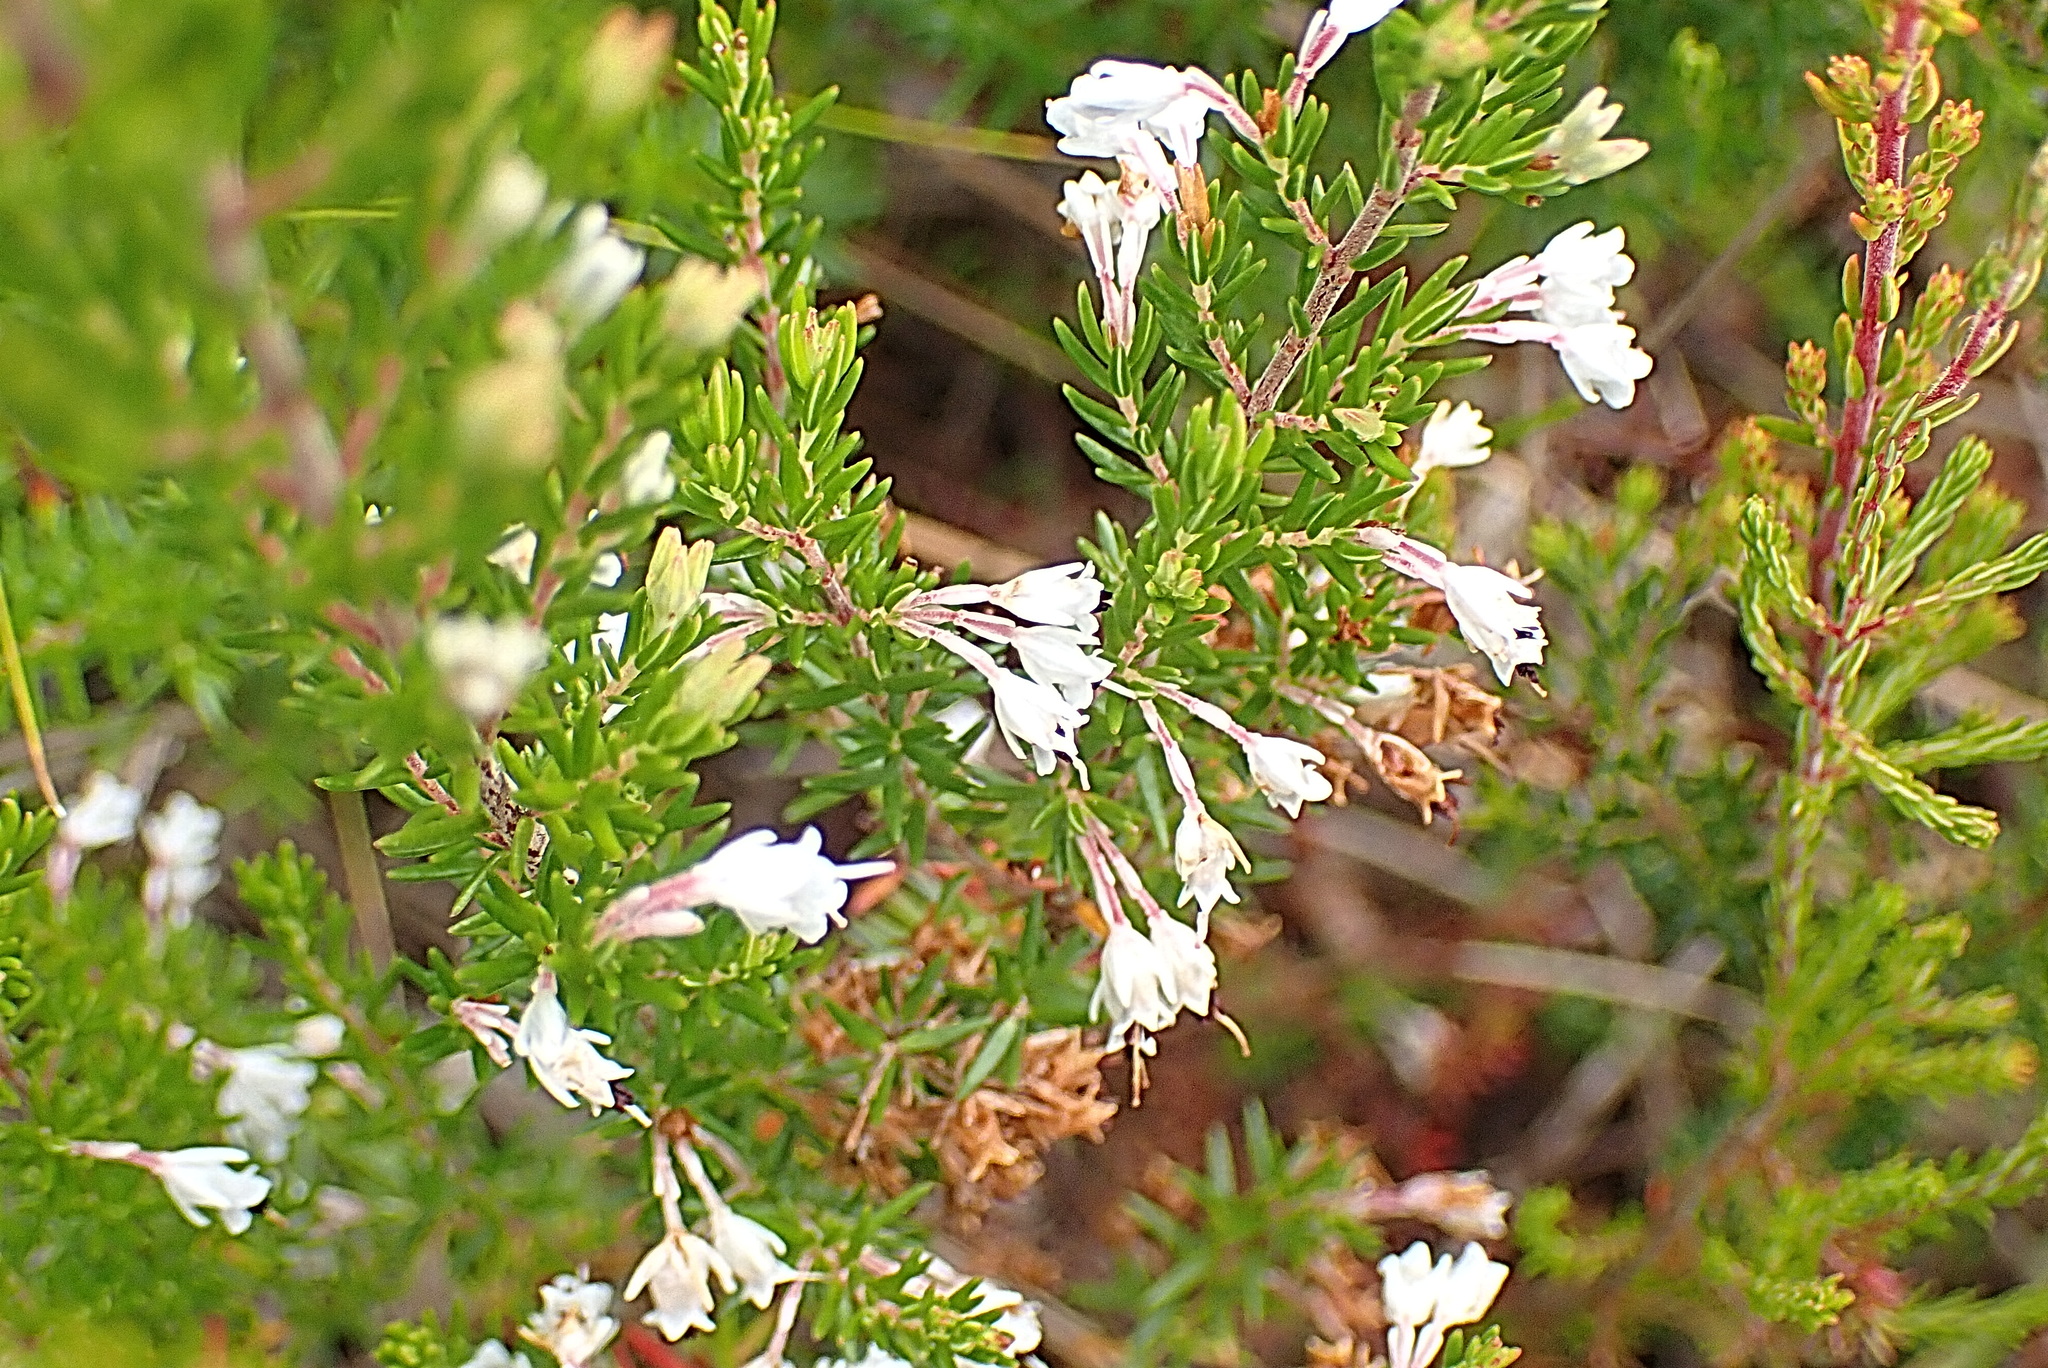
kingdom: Plantae
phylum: Tracheophyta
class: Magnoliopsida
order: Ericales
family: Ericaceae
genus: Erica
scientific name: Erica fuscescens
